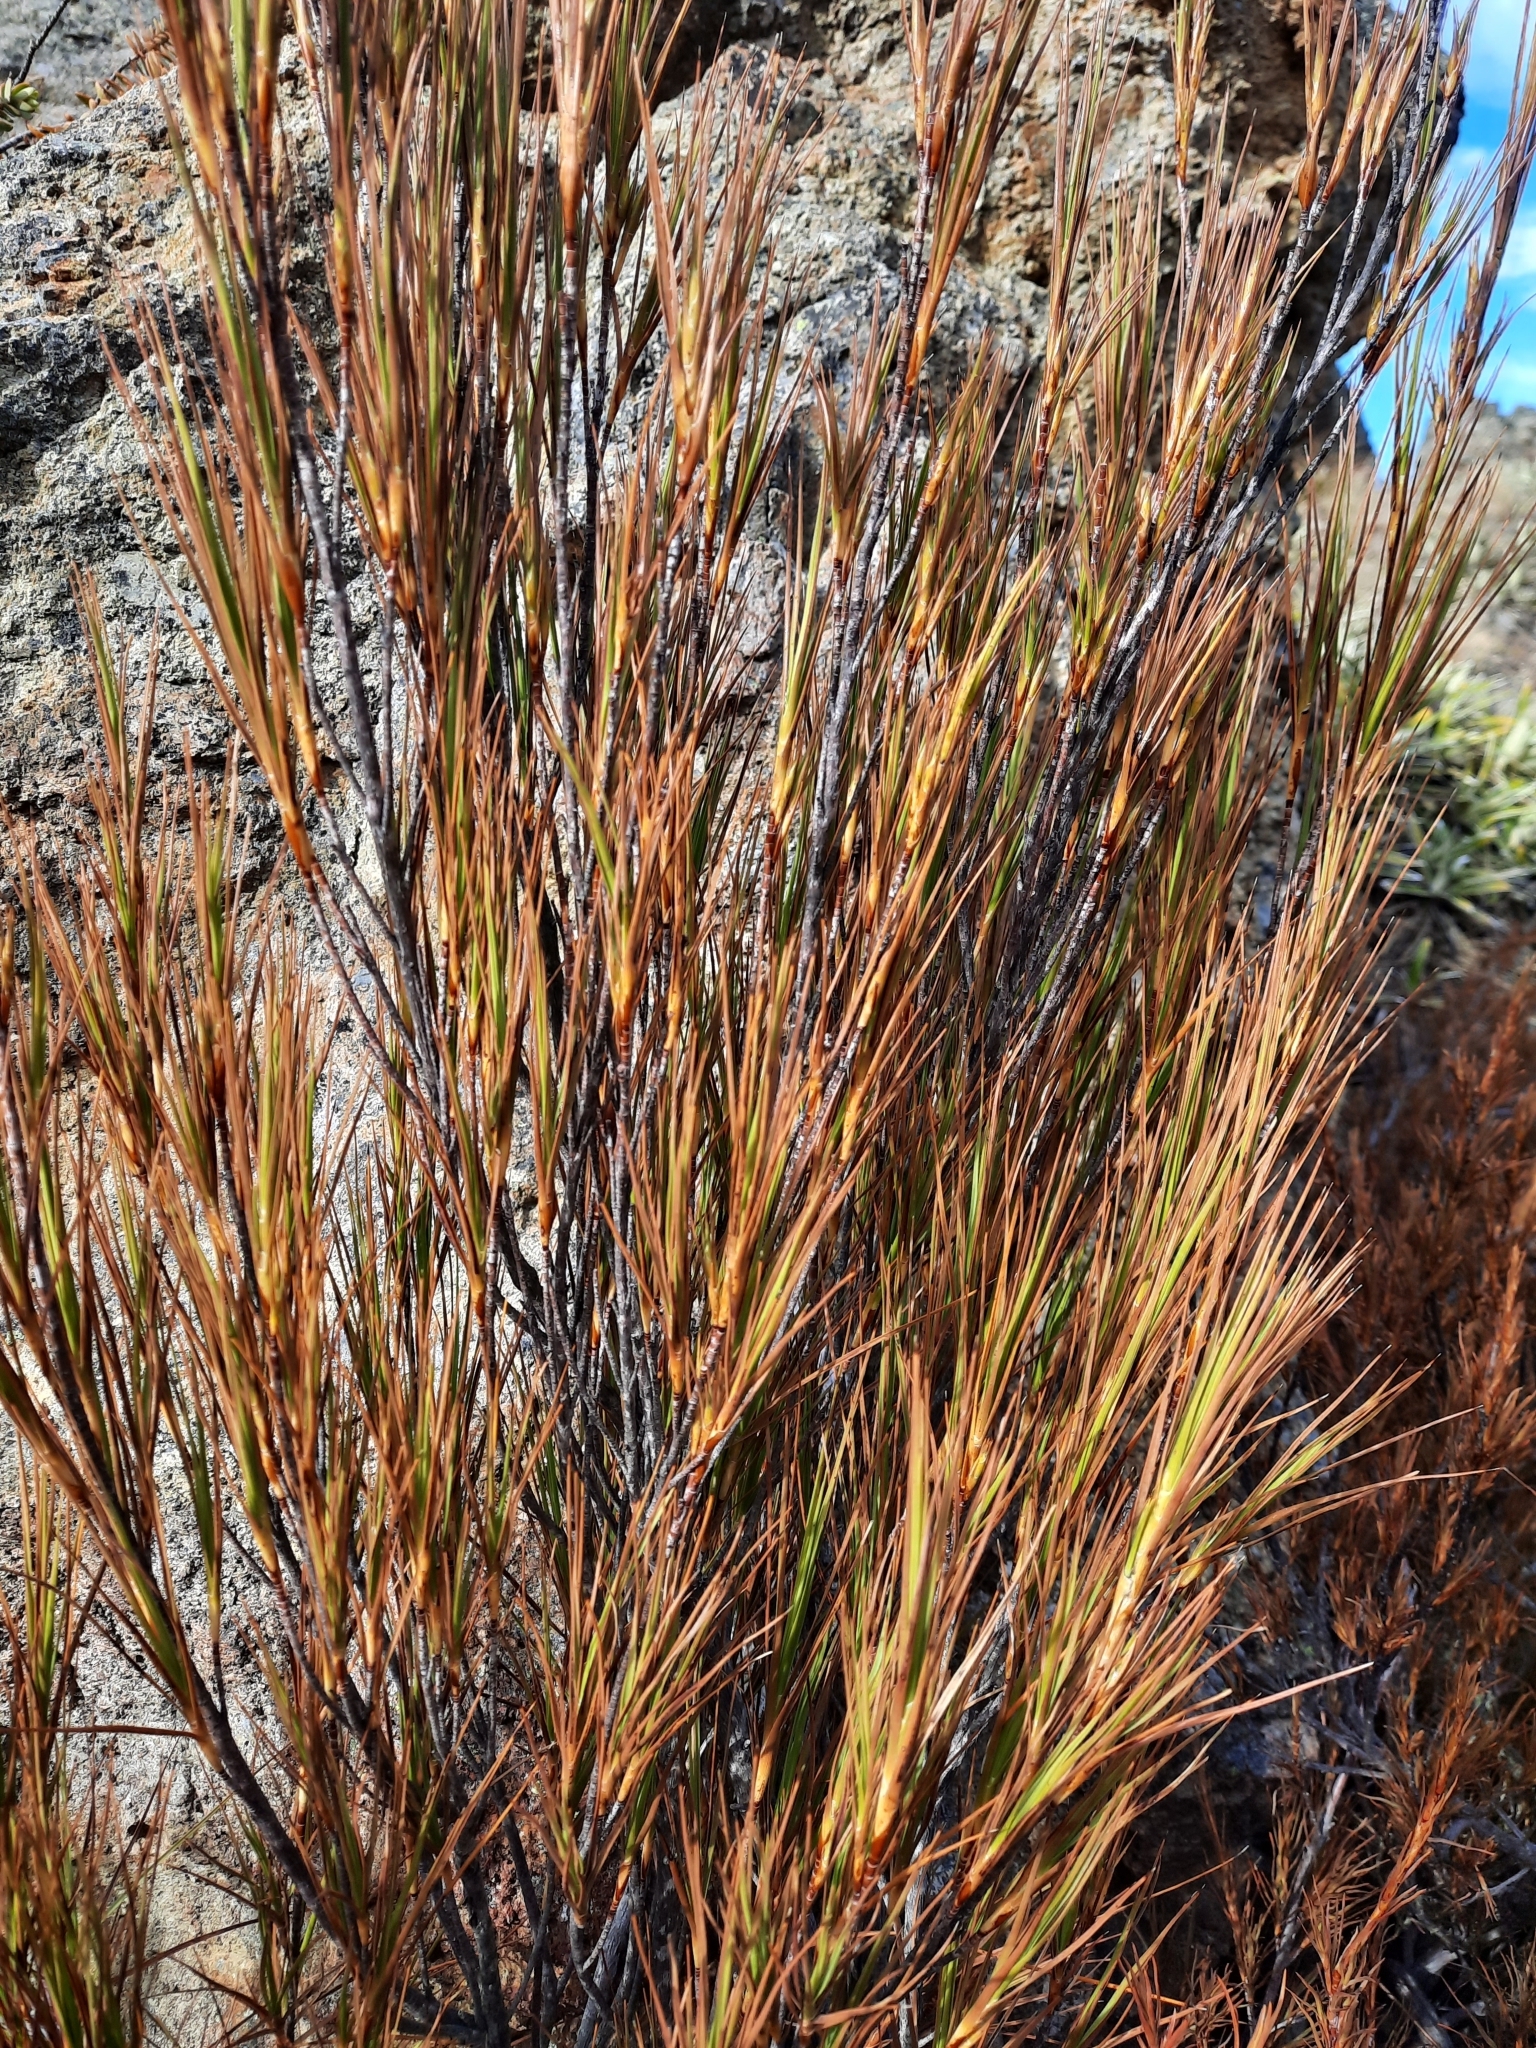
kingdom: Plantae
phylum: Tracheophyta
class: Magnoliopsida
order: Ericales
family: Ericaceae
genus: Dracophyllum
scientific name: Dracophyllum longifolium
